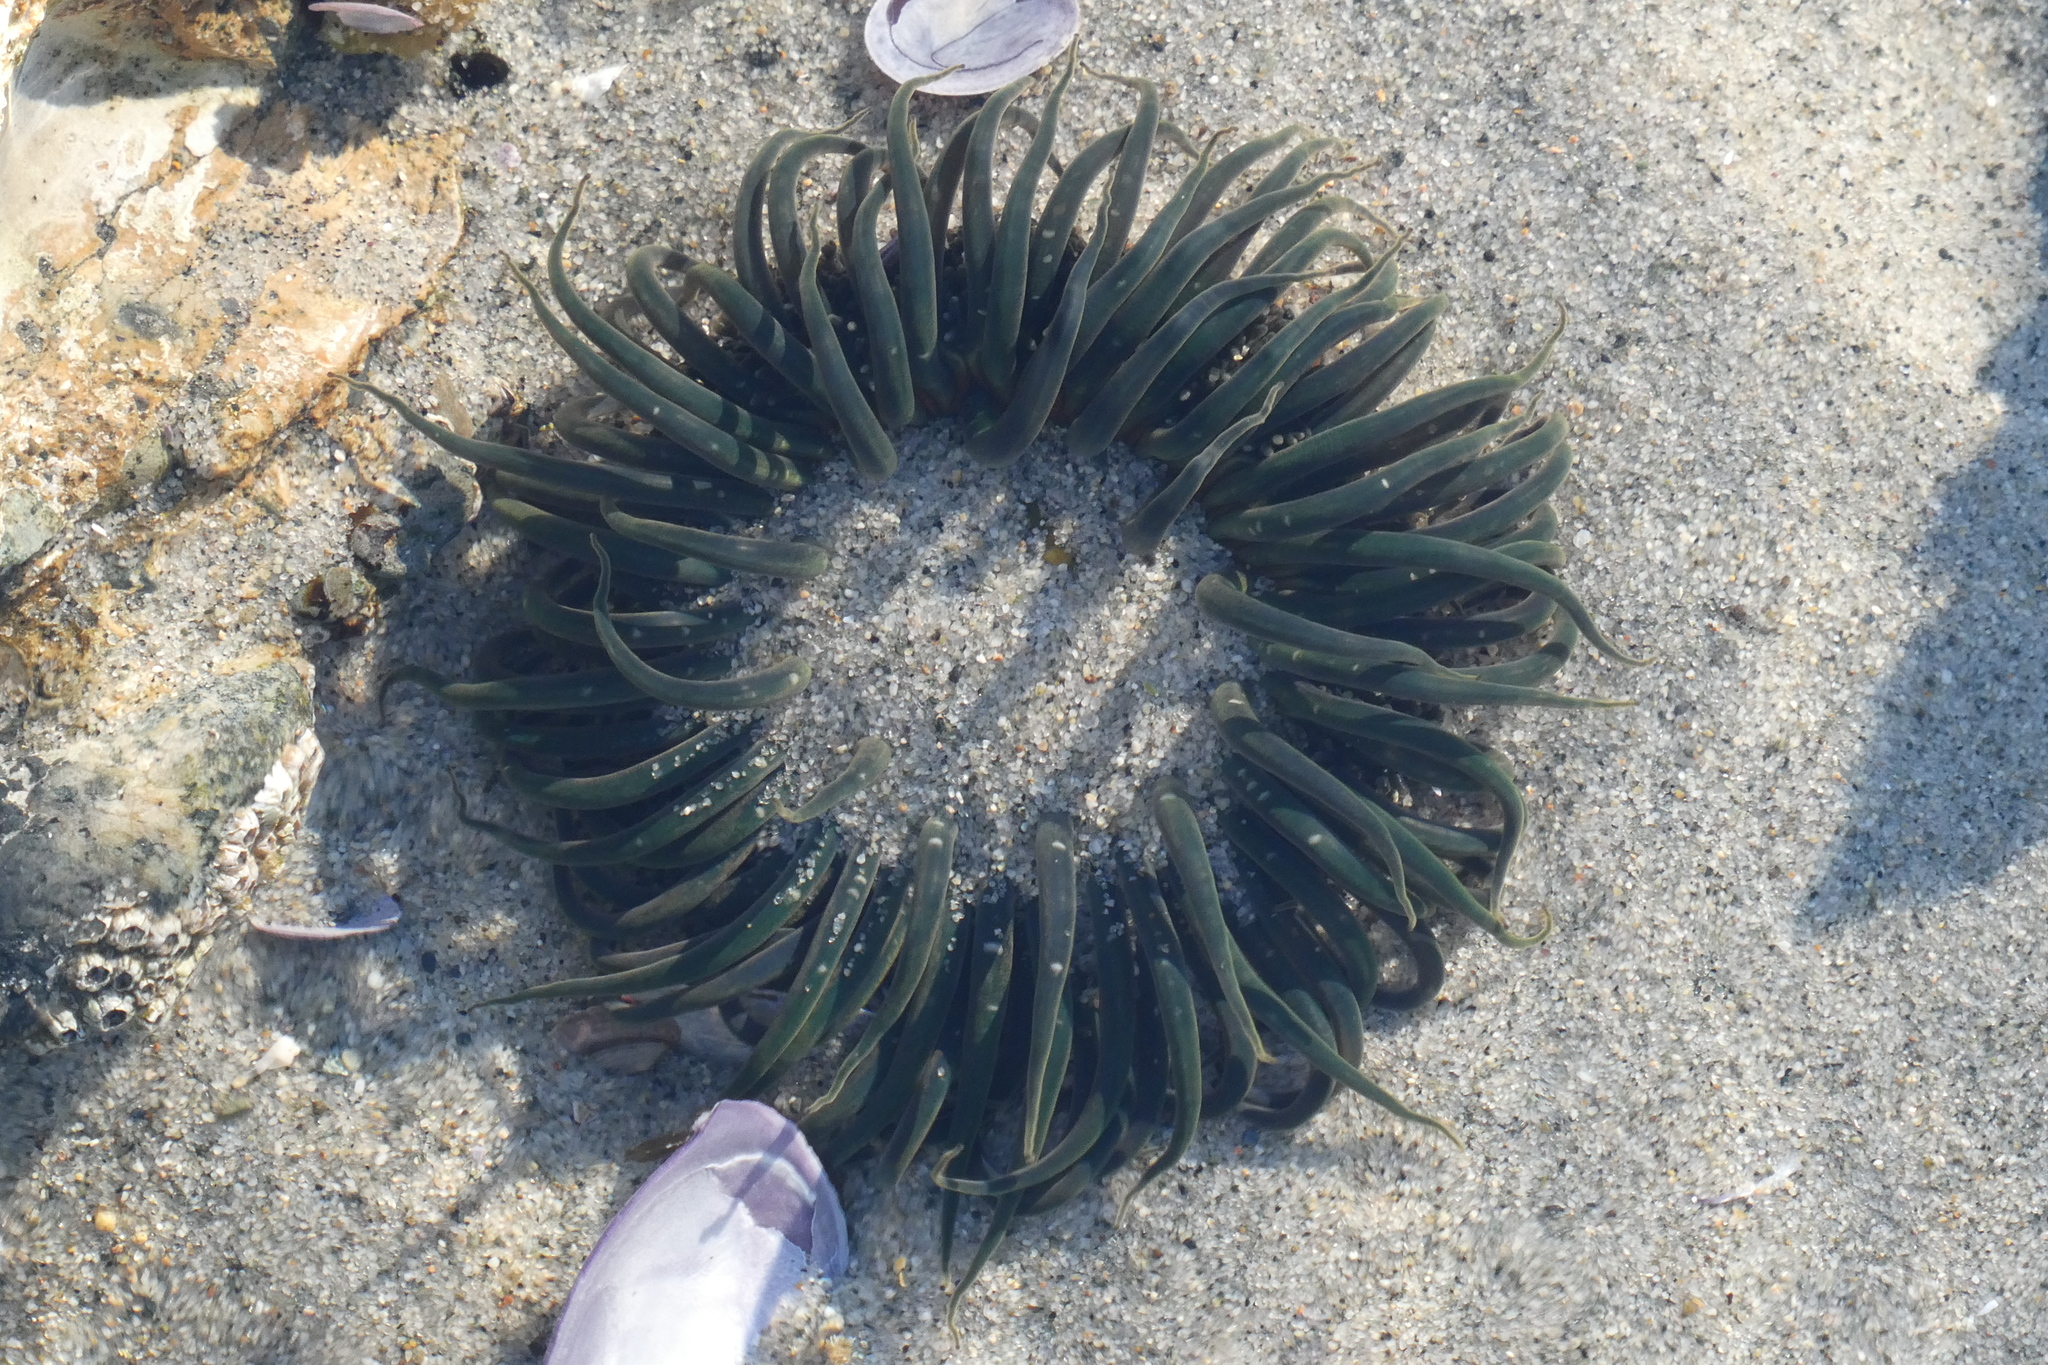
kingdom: Animalia
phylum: Cnidaria
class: Anthozoa
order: Actiniaria
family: Actiniidae
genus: Anthopleura
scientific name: Anthopleura artemisia
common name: Buried sea anemone
